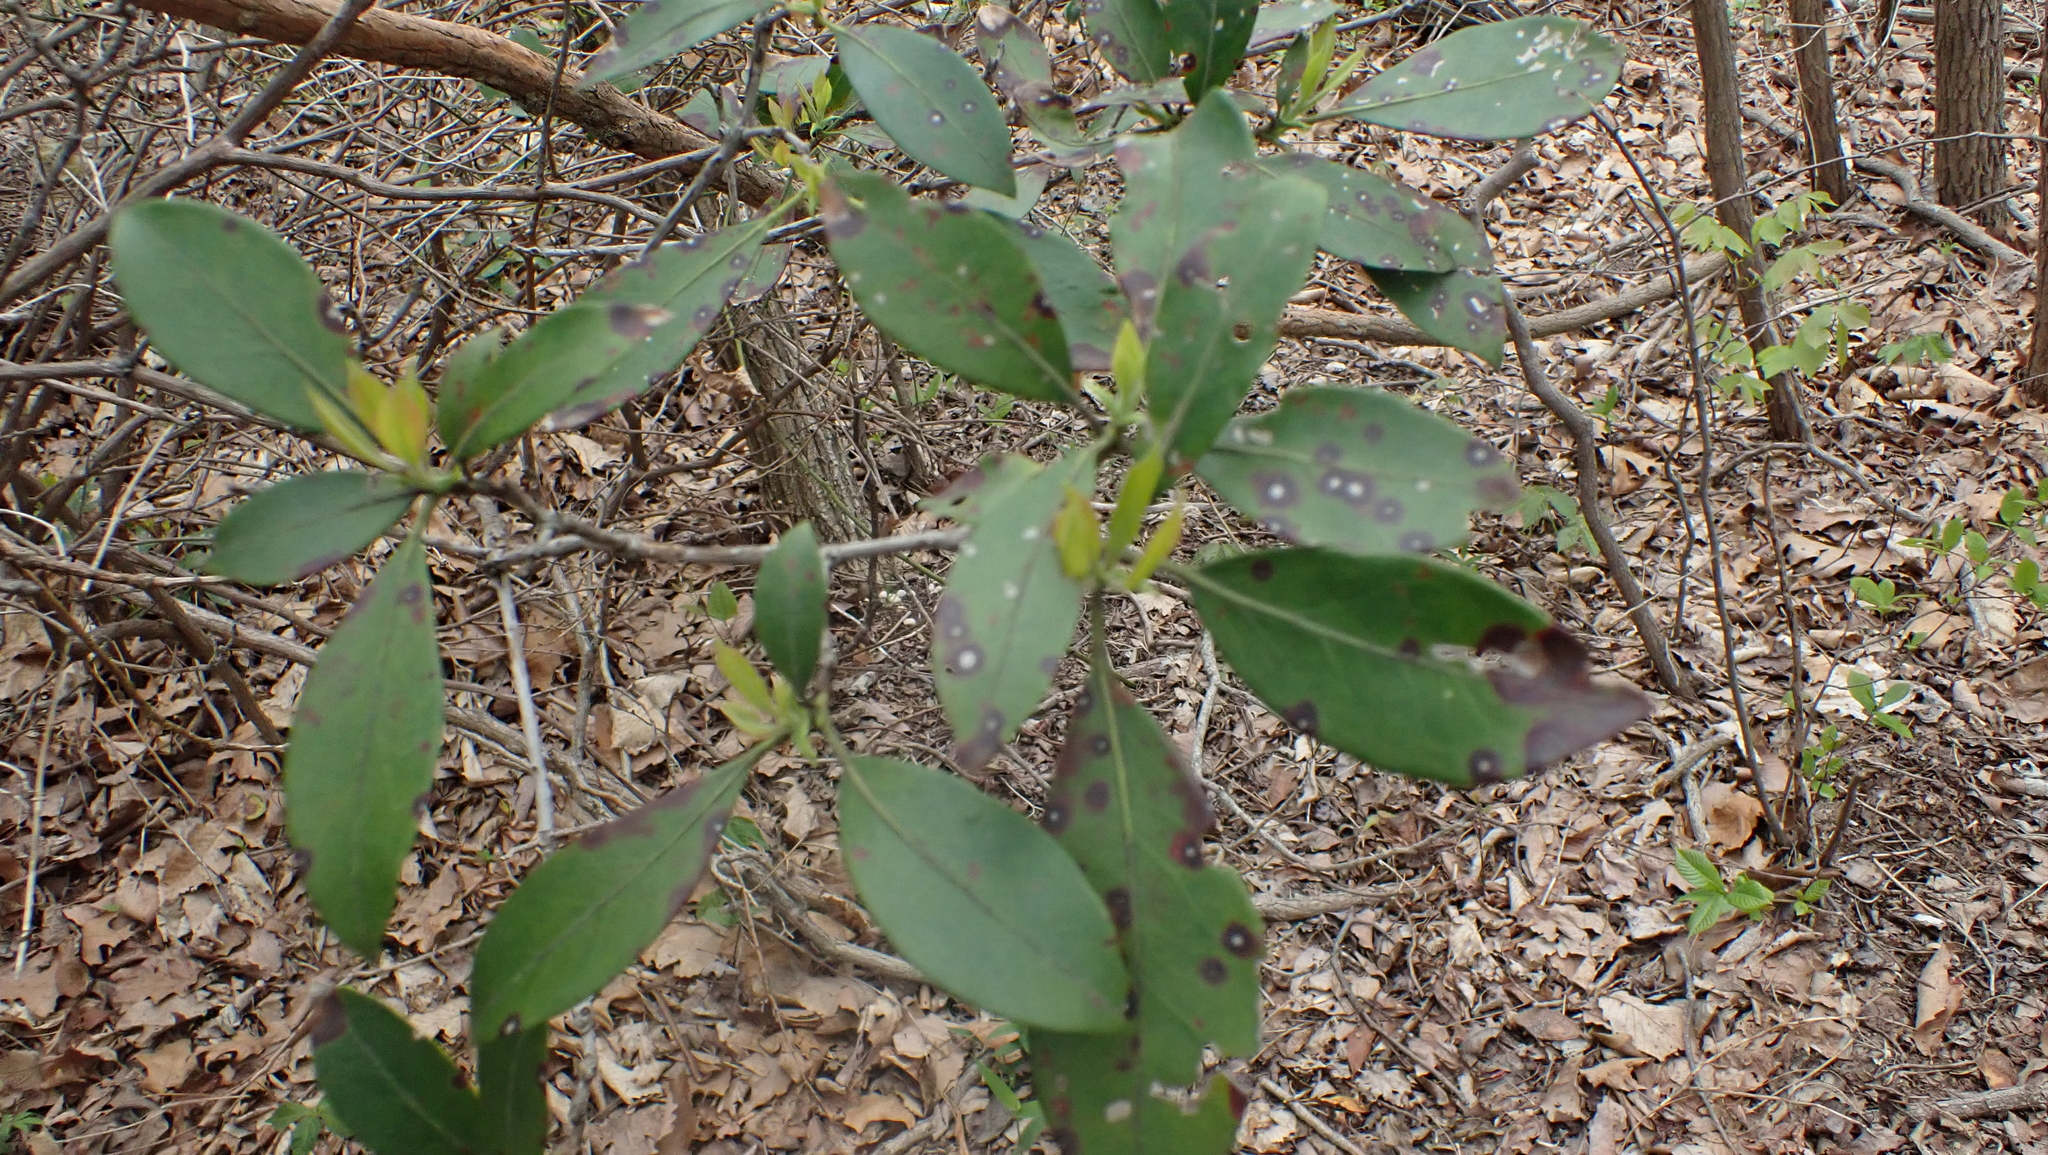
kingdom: Plantae
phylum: Tracheophyta
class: Magnoliopsida
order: Ericales
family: Ericaceae
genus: Kalmia
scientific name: Kalmia latifolia
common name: Mountain-laurel
